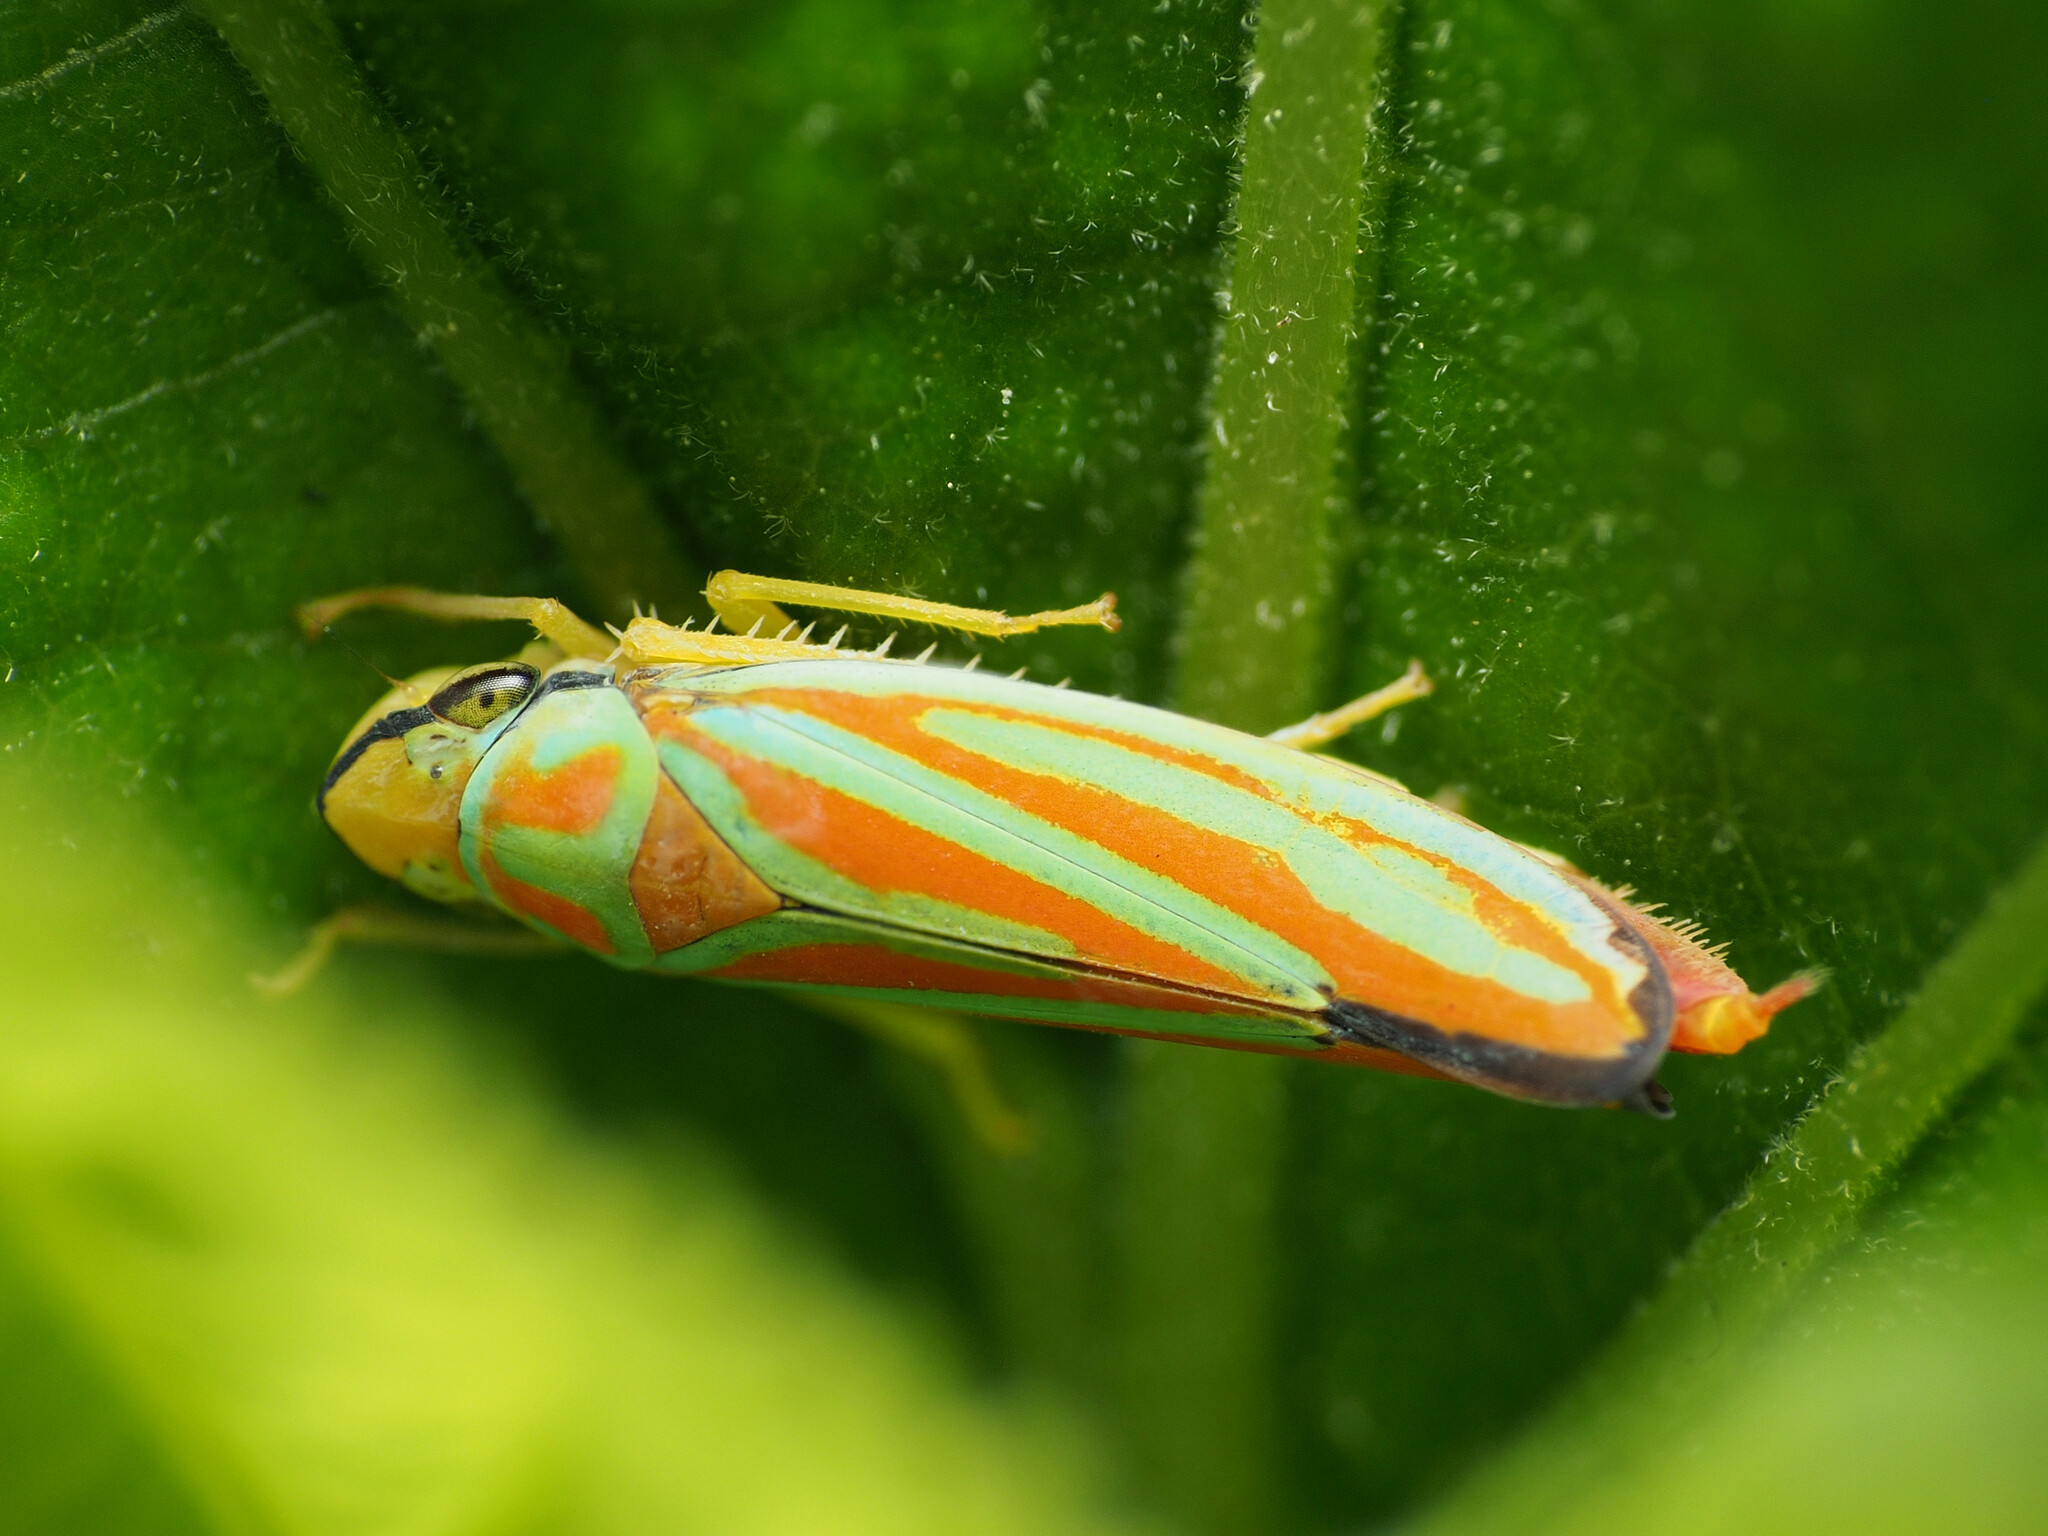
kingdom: Animalia
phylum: Arthropoda
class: Insecta
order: Hemiptera
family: Cicadellidae
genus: Graphocephala
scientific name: Graphocephala coccinea
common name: Candy-striped leafhopper
